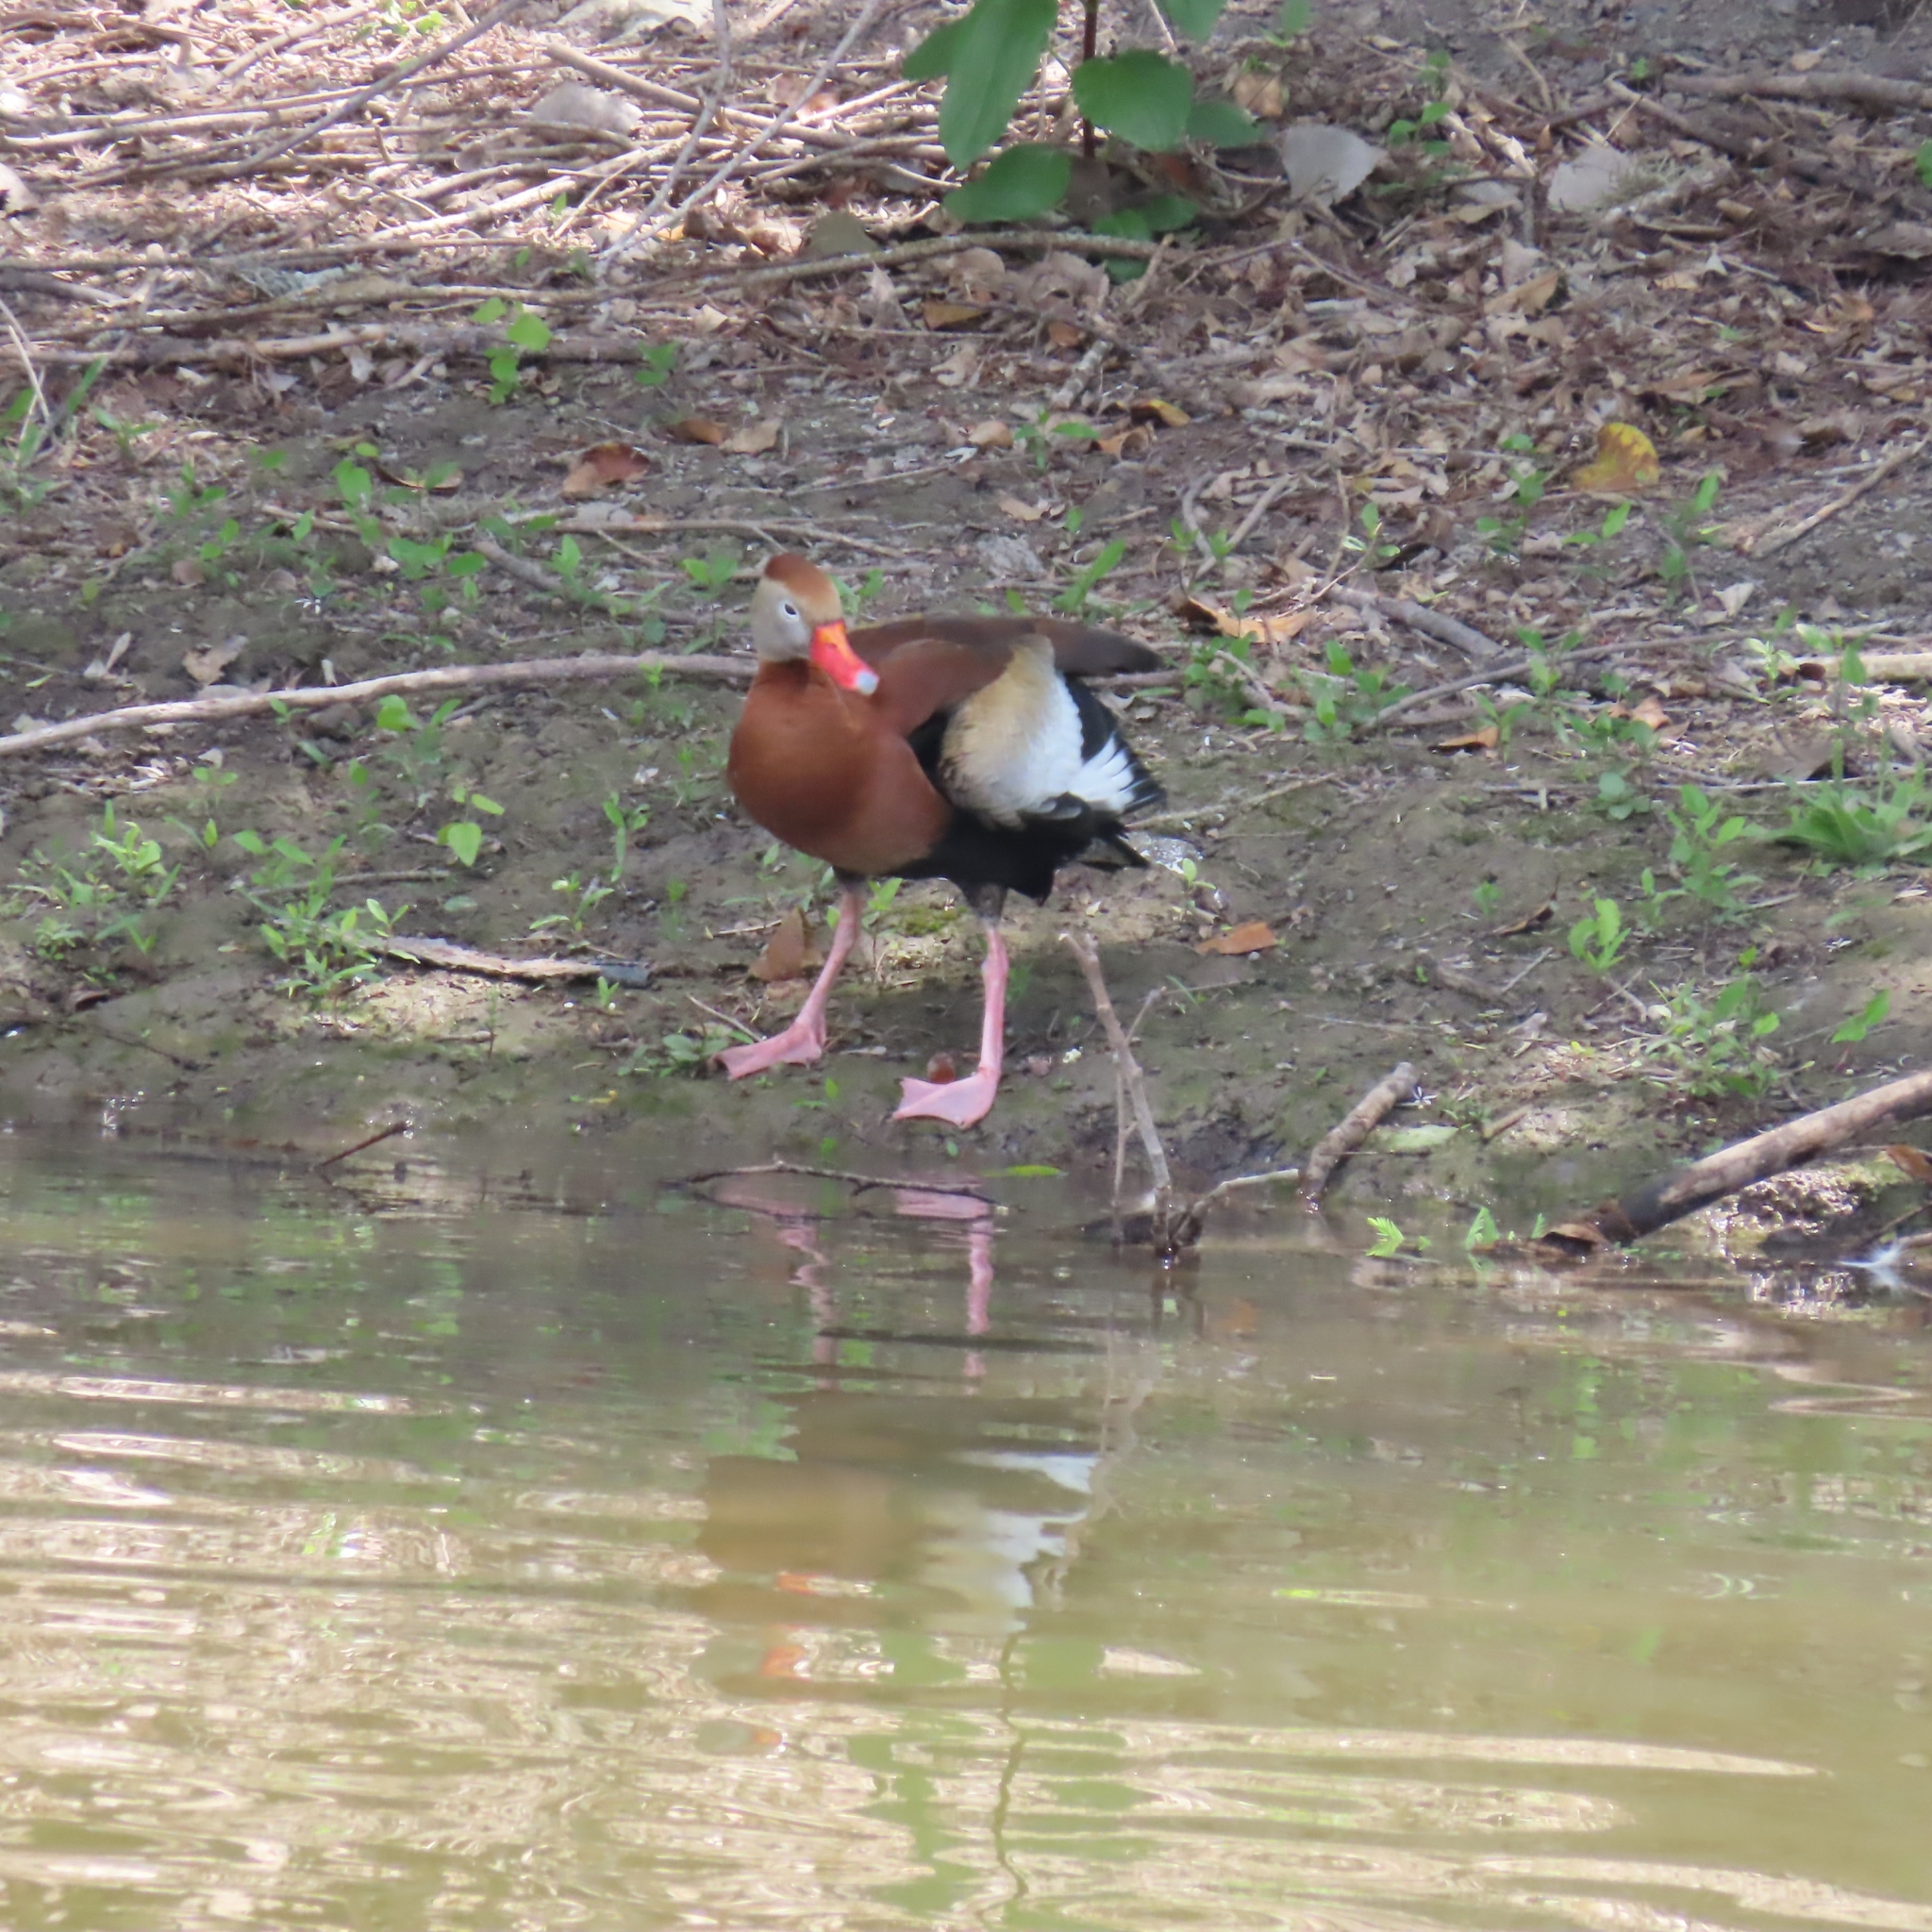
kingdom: Animalia
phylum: Chordata
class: Aves
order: Anseriformes
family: Anatidae
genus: Dendrocygna
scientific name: Dendrocygna autumnalis
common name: Black-bellied whistling duck
